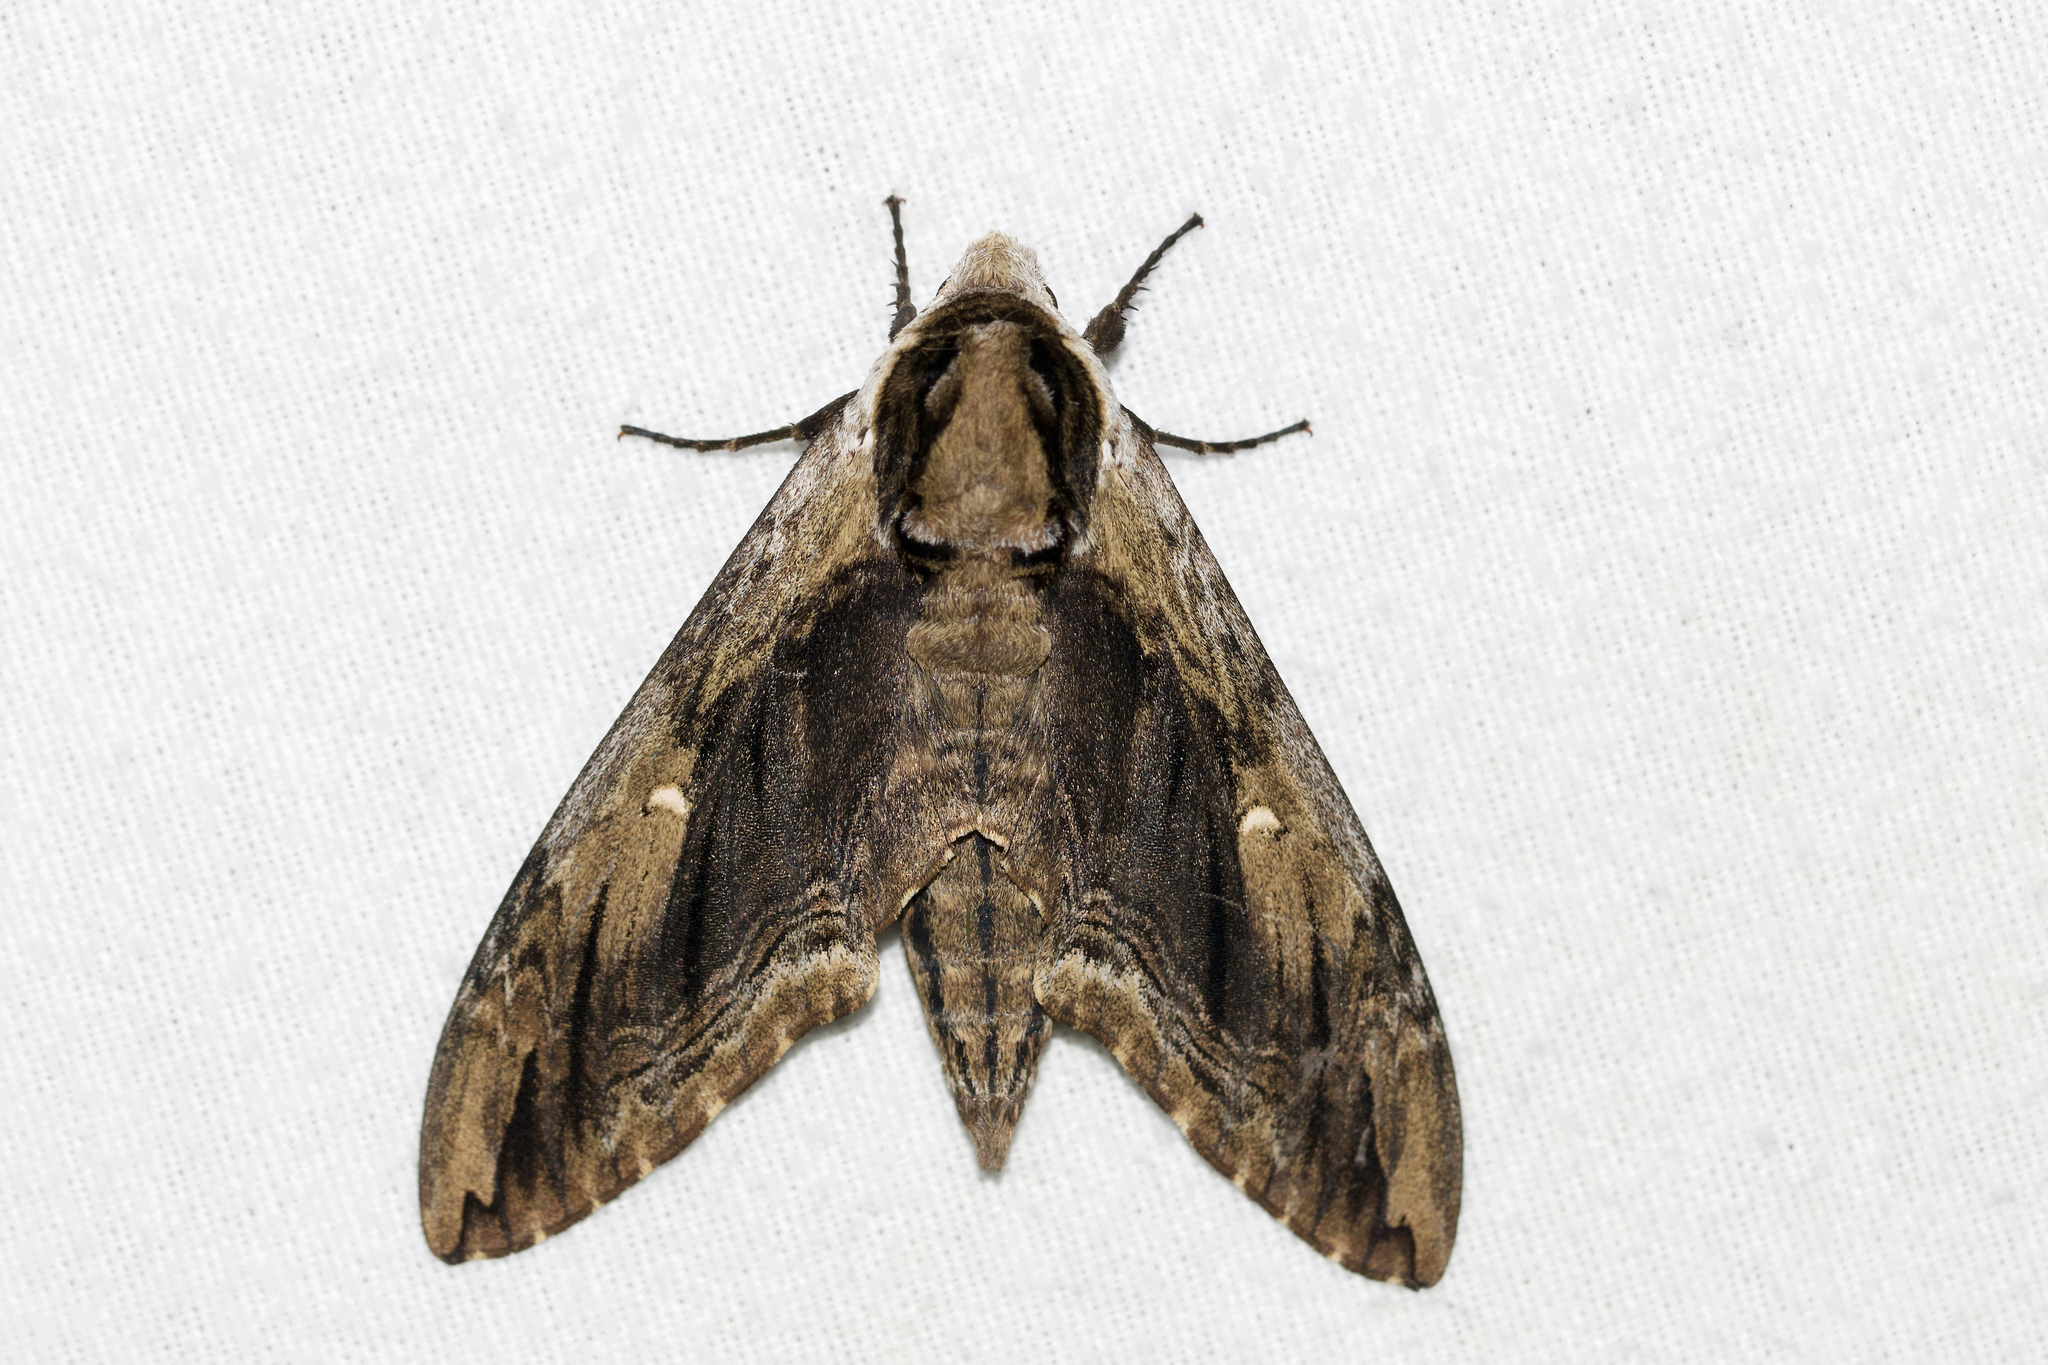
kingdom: Animalia
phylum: Arthropoda
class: Insecta
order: Lepidoptera
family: Sphingidae
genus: Ceratomia
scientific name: Ceratomia amyntor
